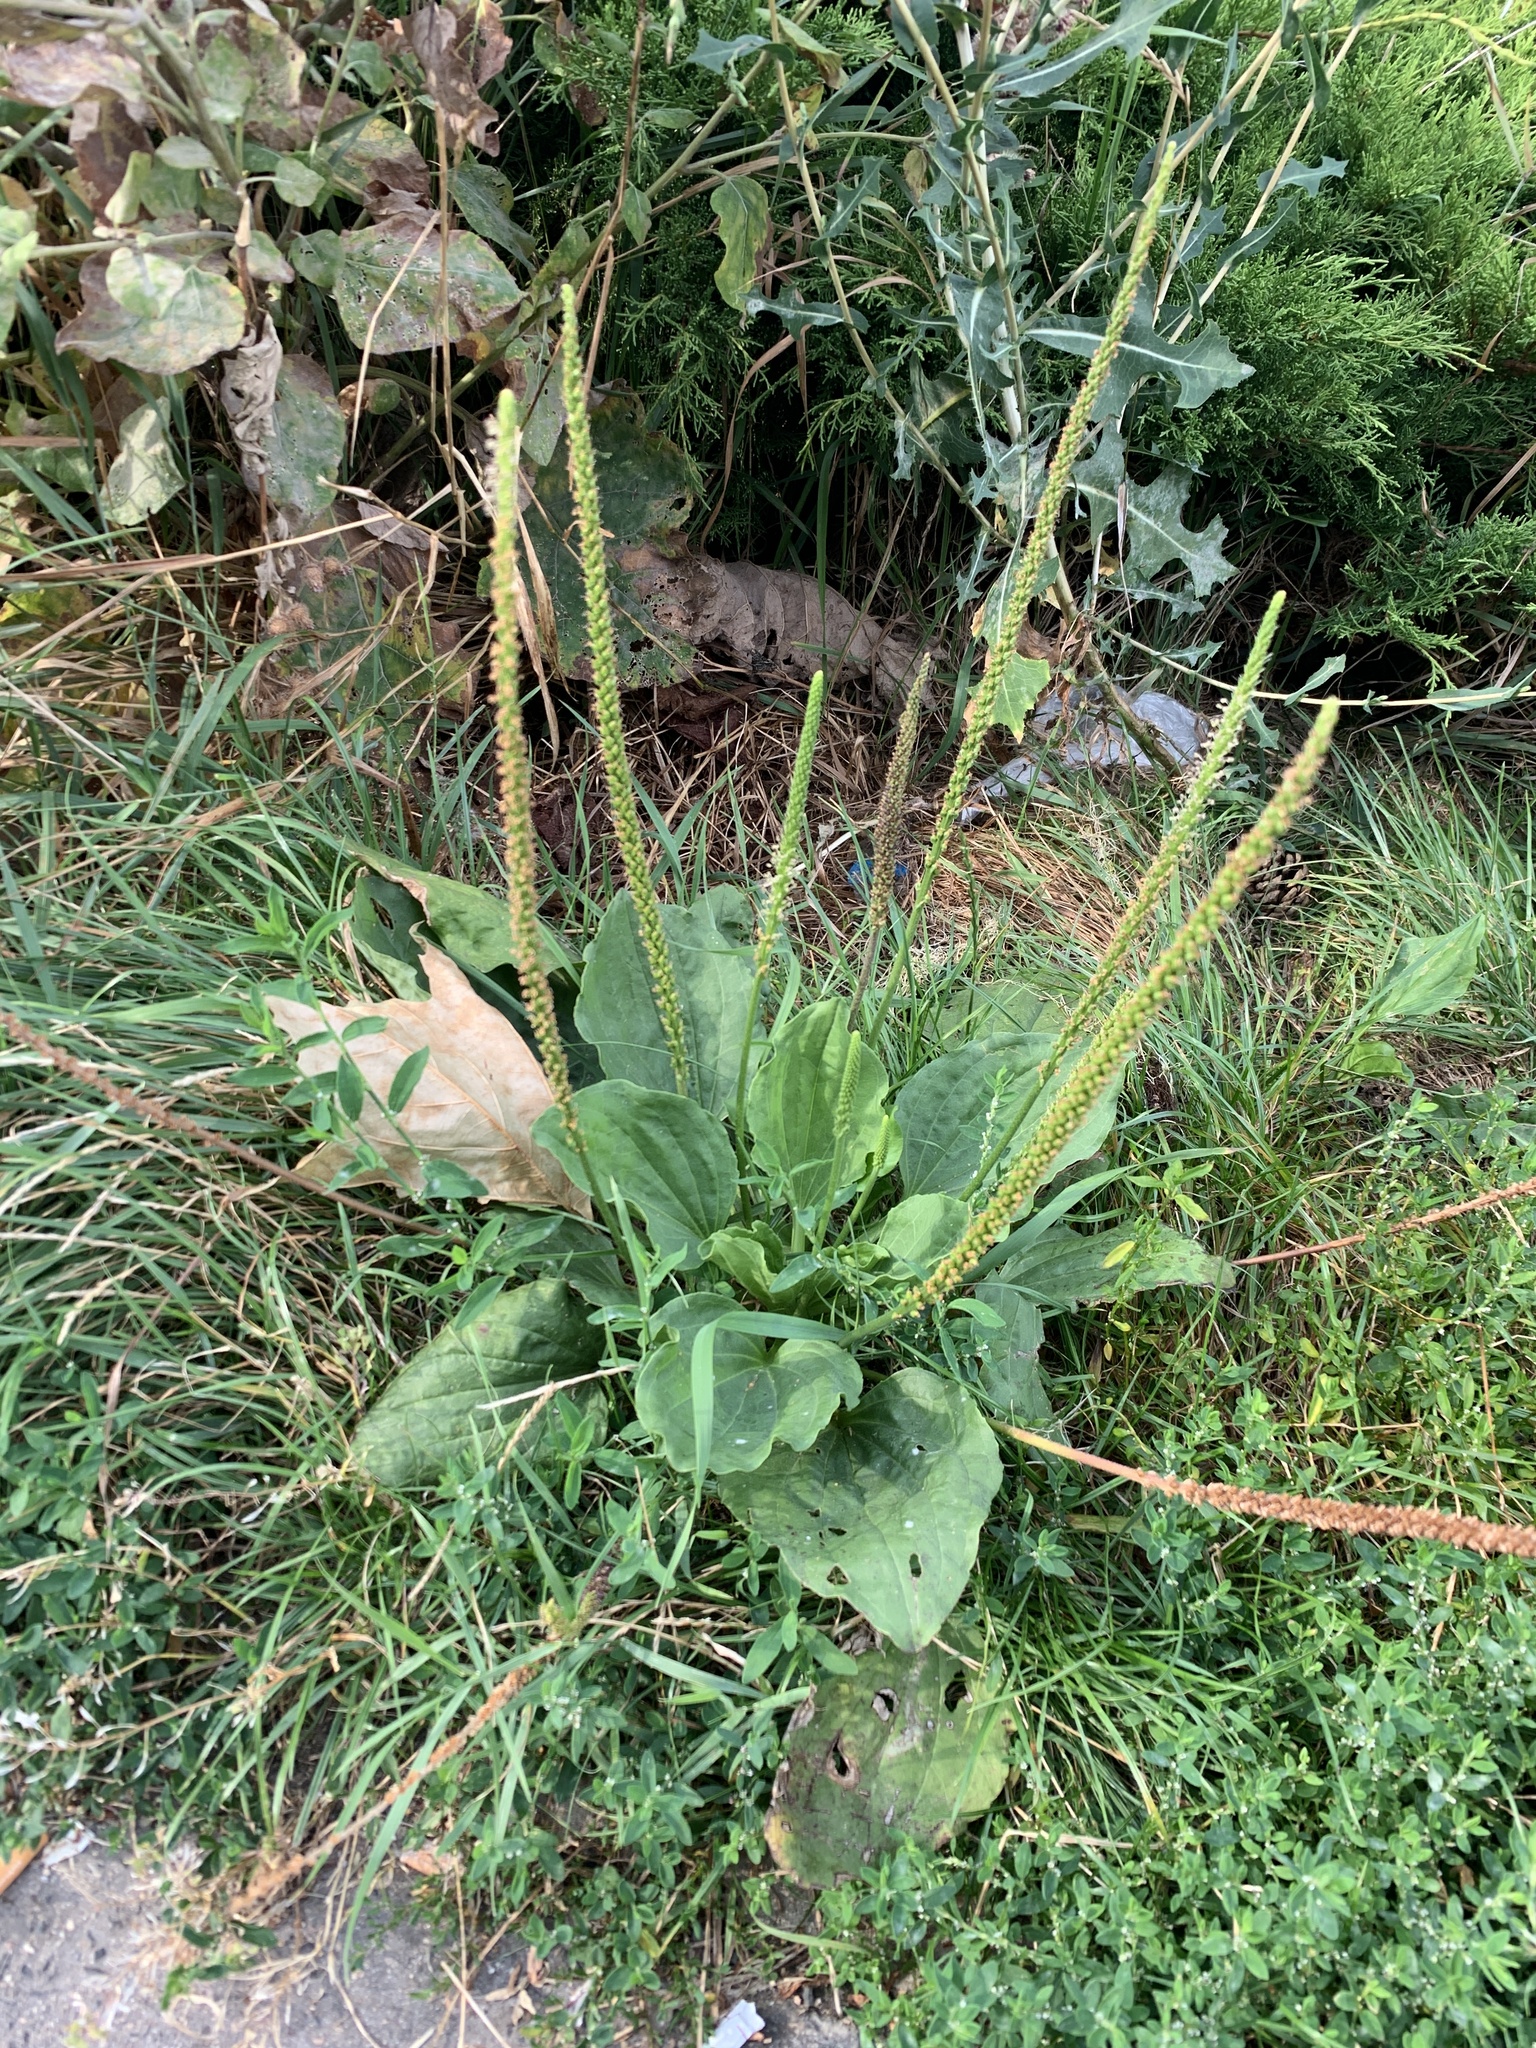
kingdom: Plantae
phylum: Tracheophyta
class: Magnoliopsida
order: Lamiales
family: Plantaginaceae
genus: Plantago
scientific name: Plantago major
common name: Common plantain
